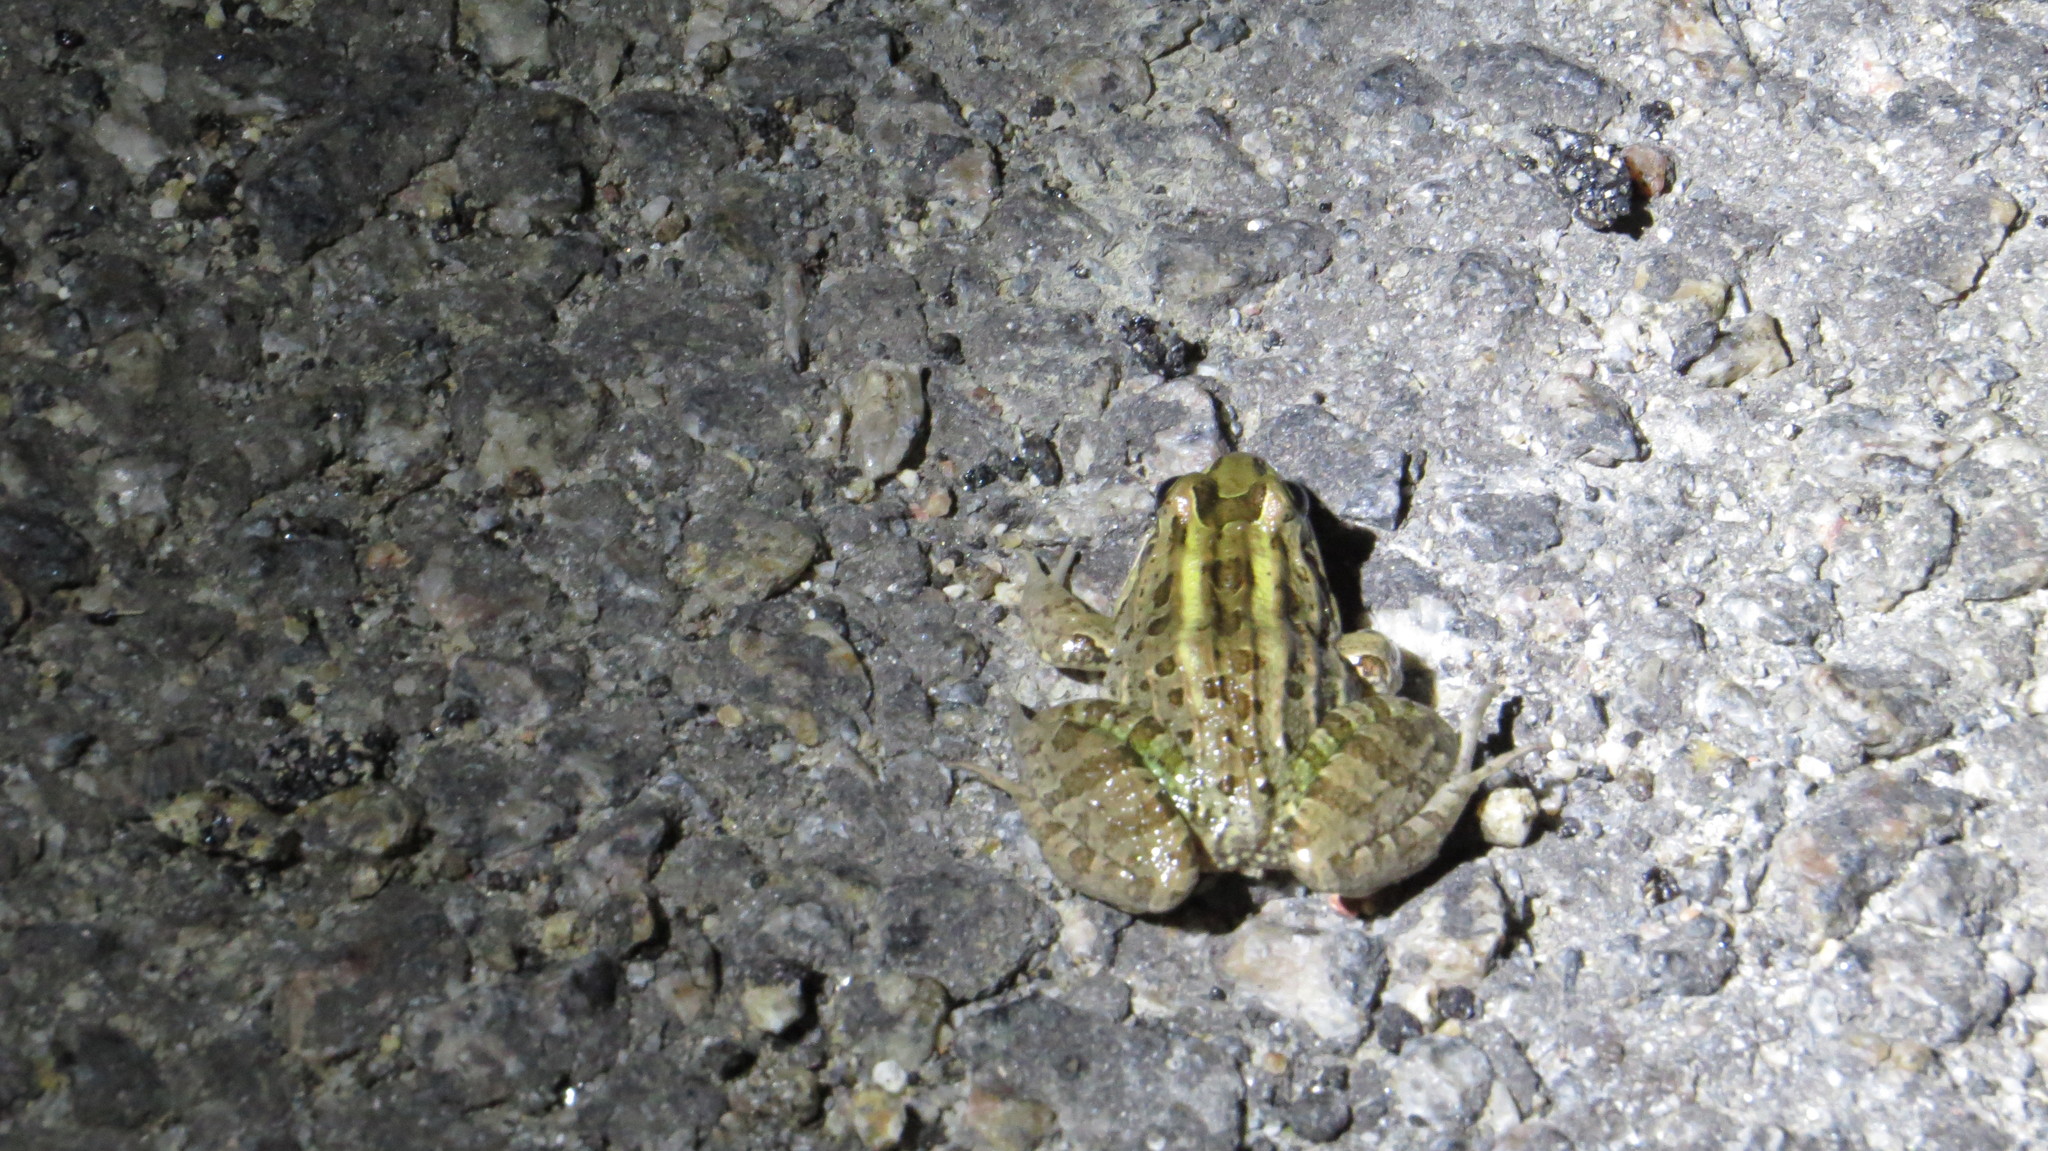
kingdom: Animalia
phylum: Chordata
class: Amphibia
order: Anura
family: Leptodactylidae
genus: Leptodactylus
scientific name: Leptodactylus luctator
